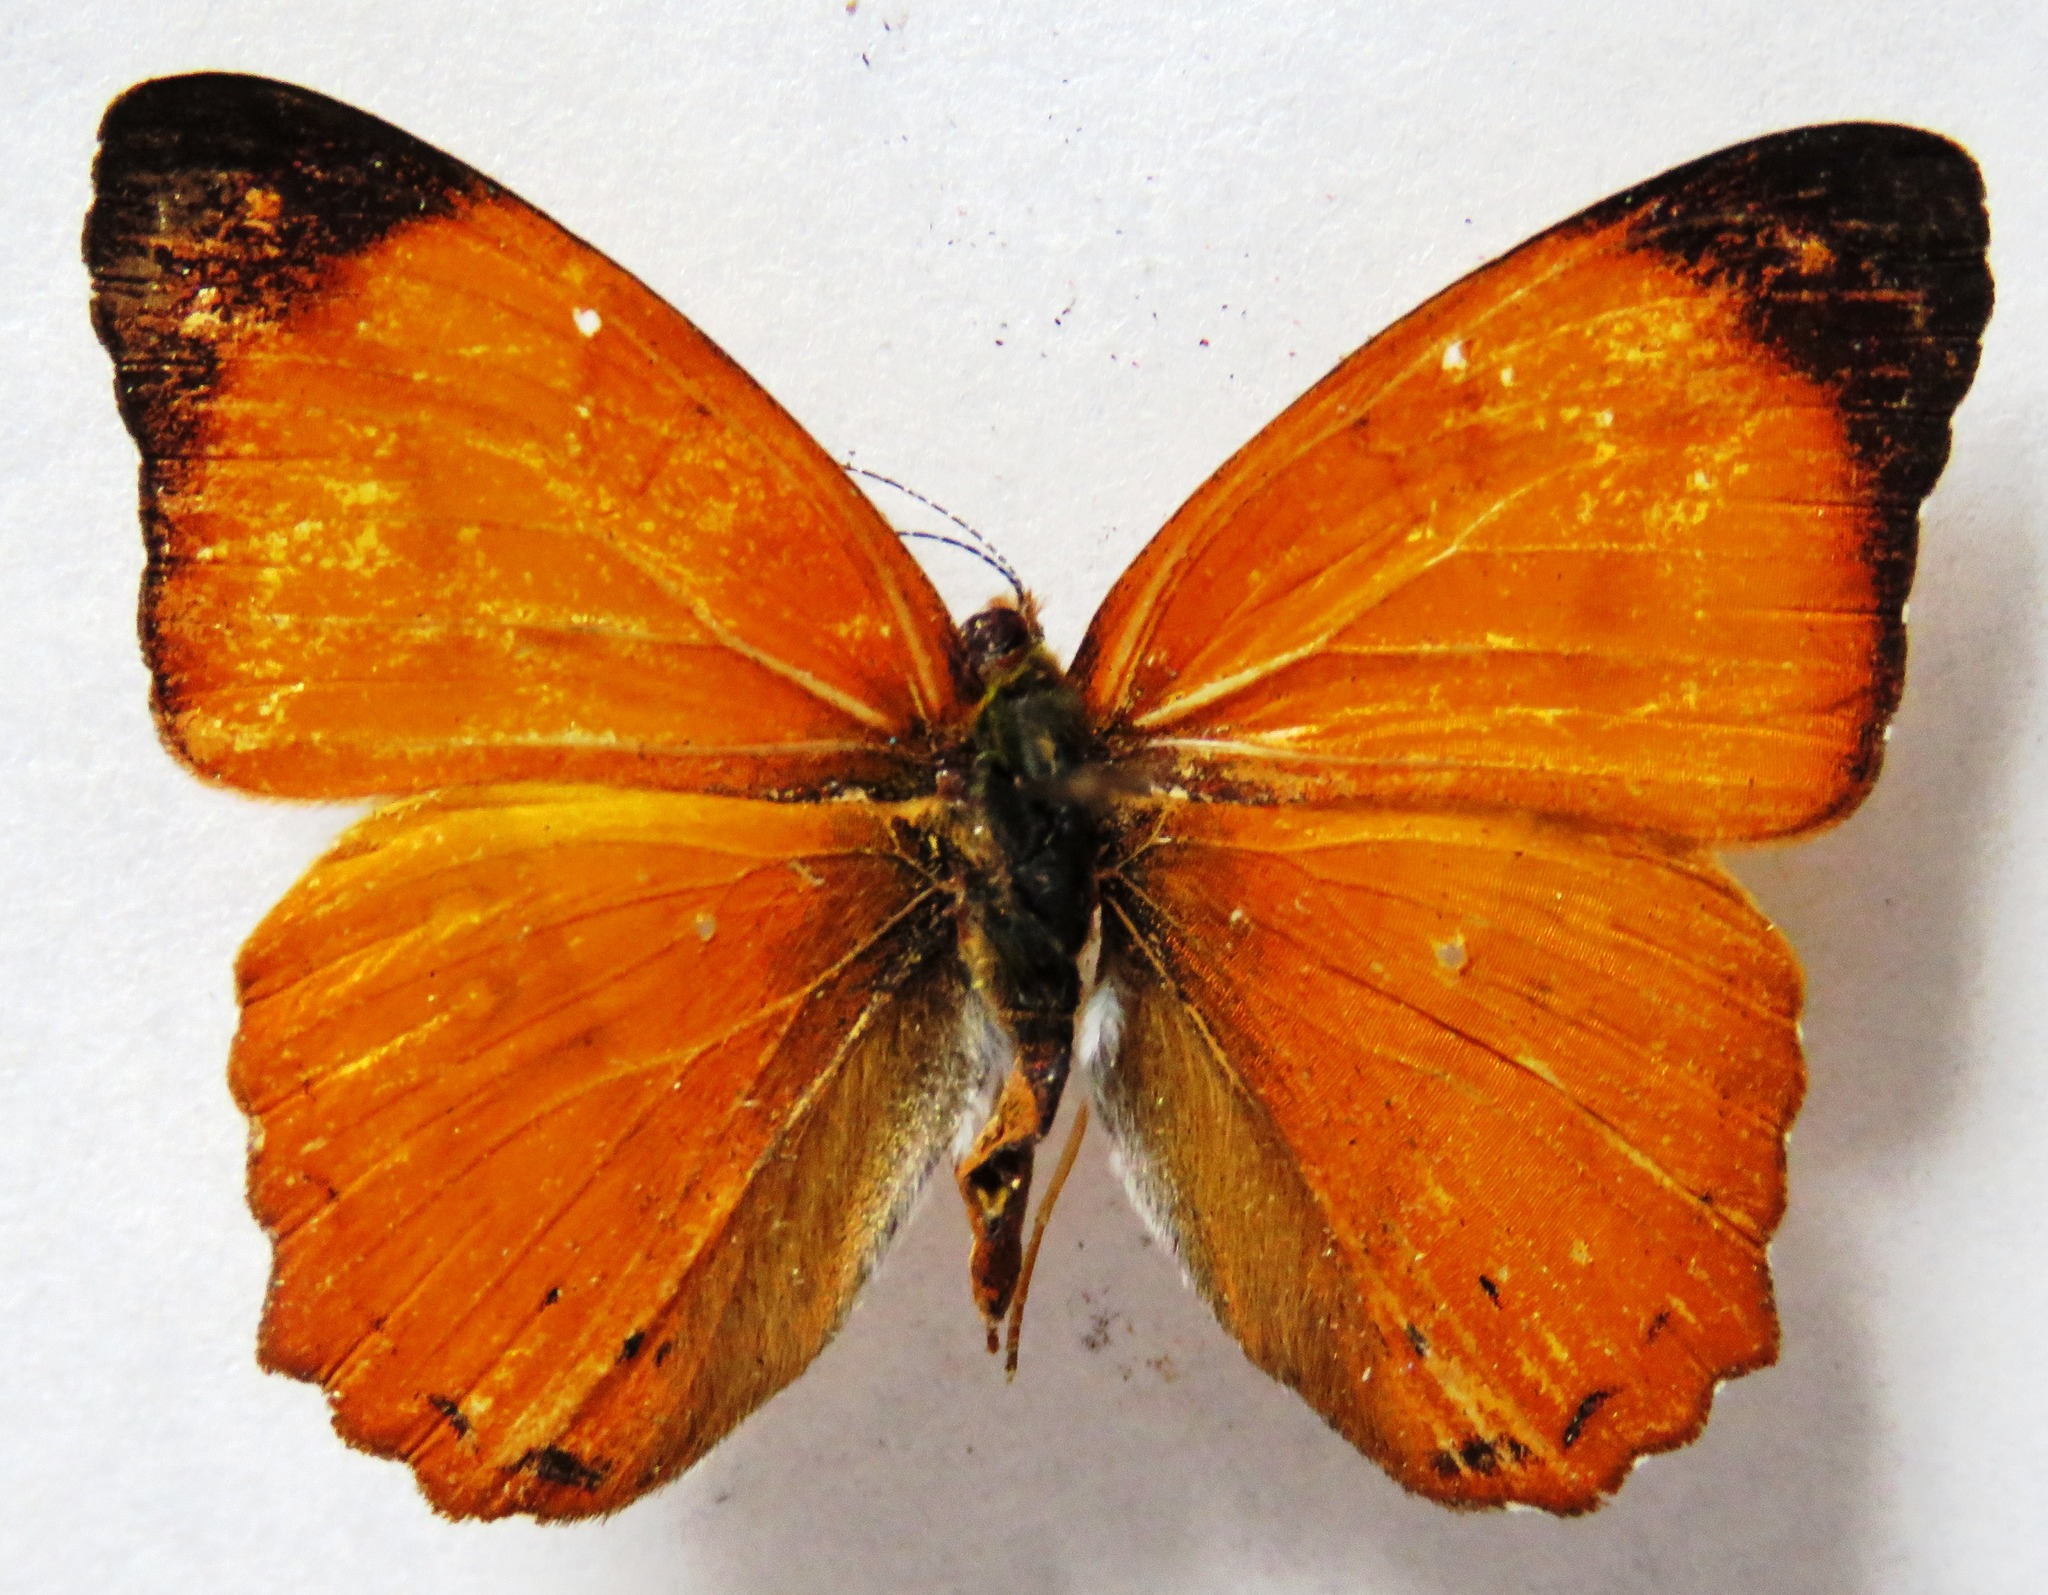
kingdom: Animalia
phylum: Arthropoda
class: Insecta
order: Lepidoptera
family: Nymphalidae
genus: Nica
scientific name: Nica flavilla
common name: Mandarin nica
